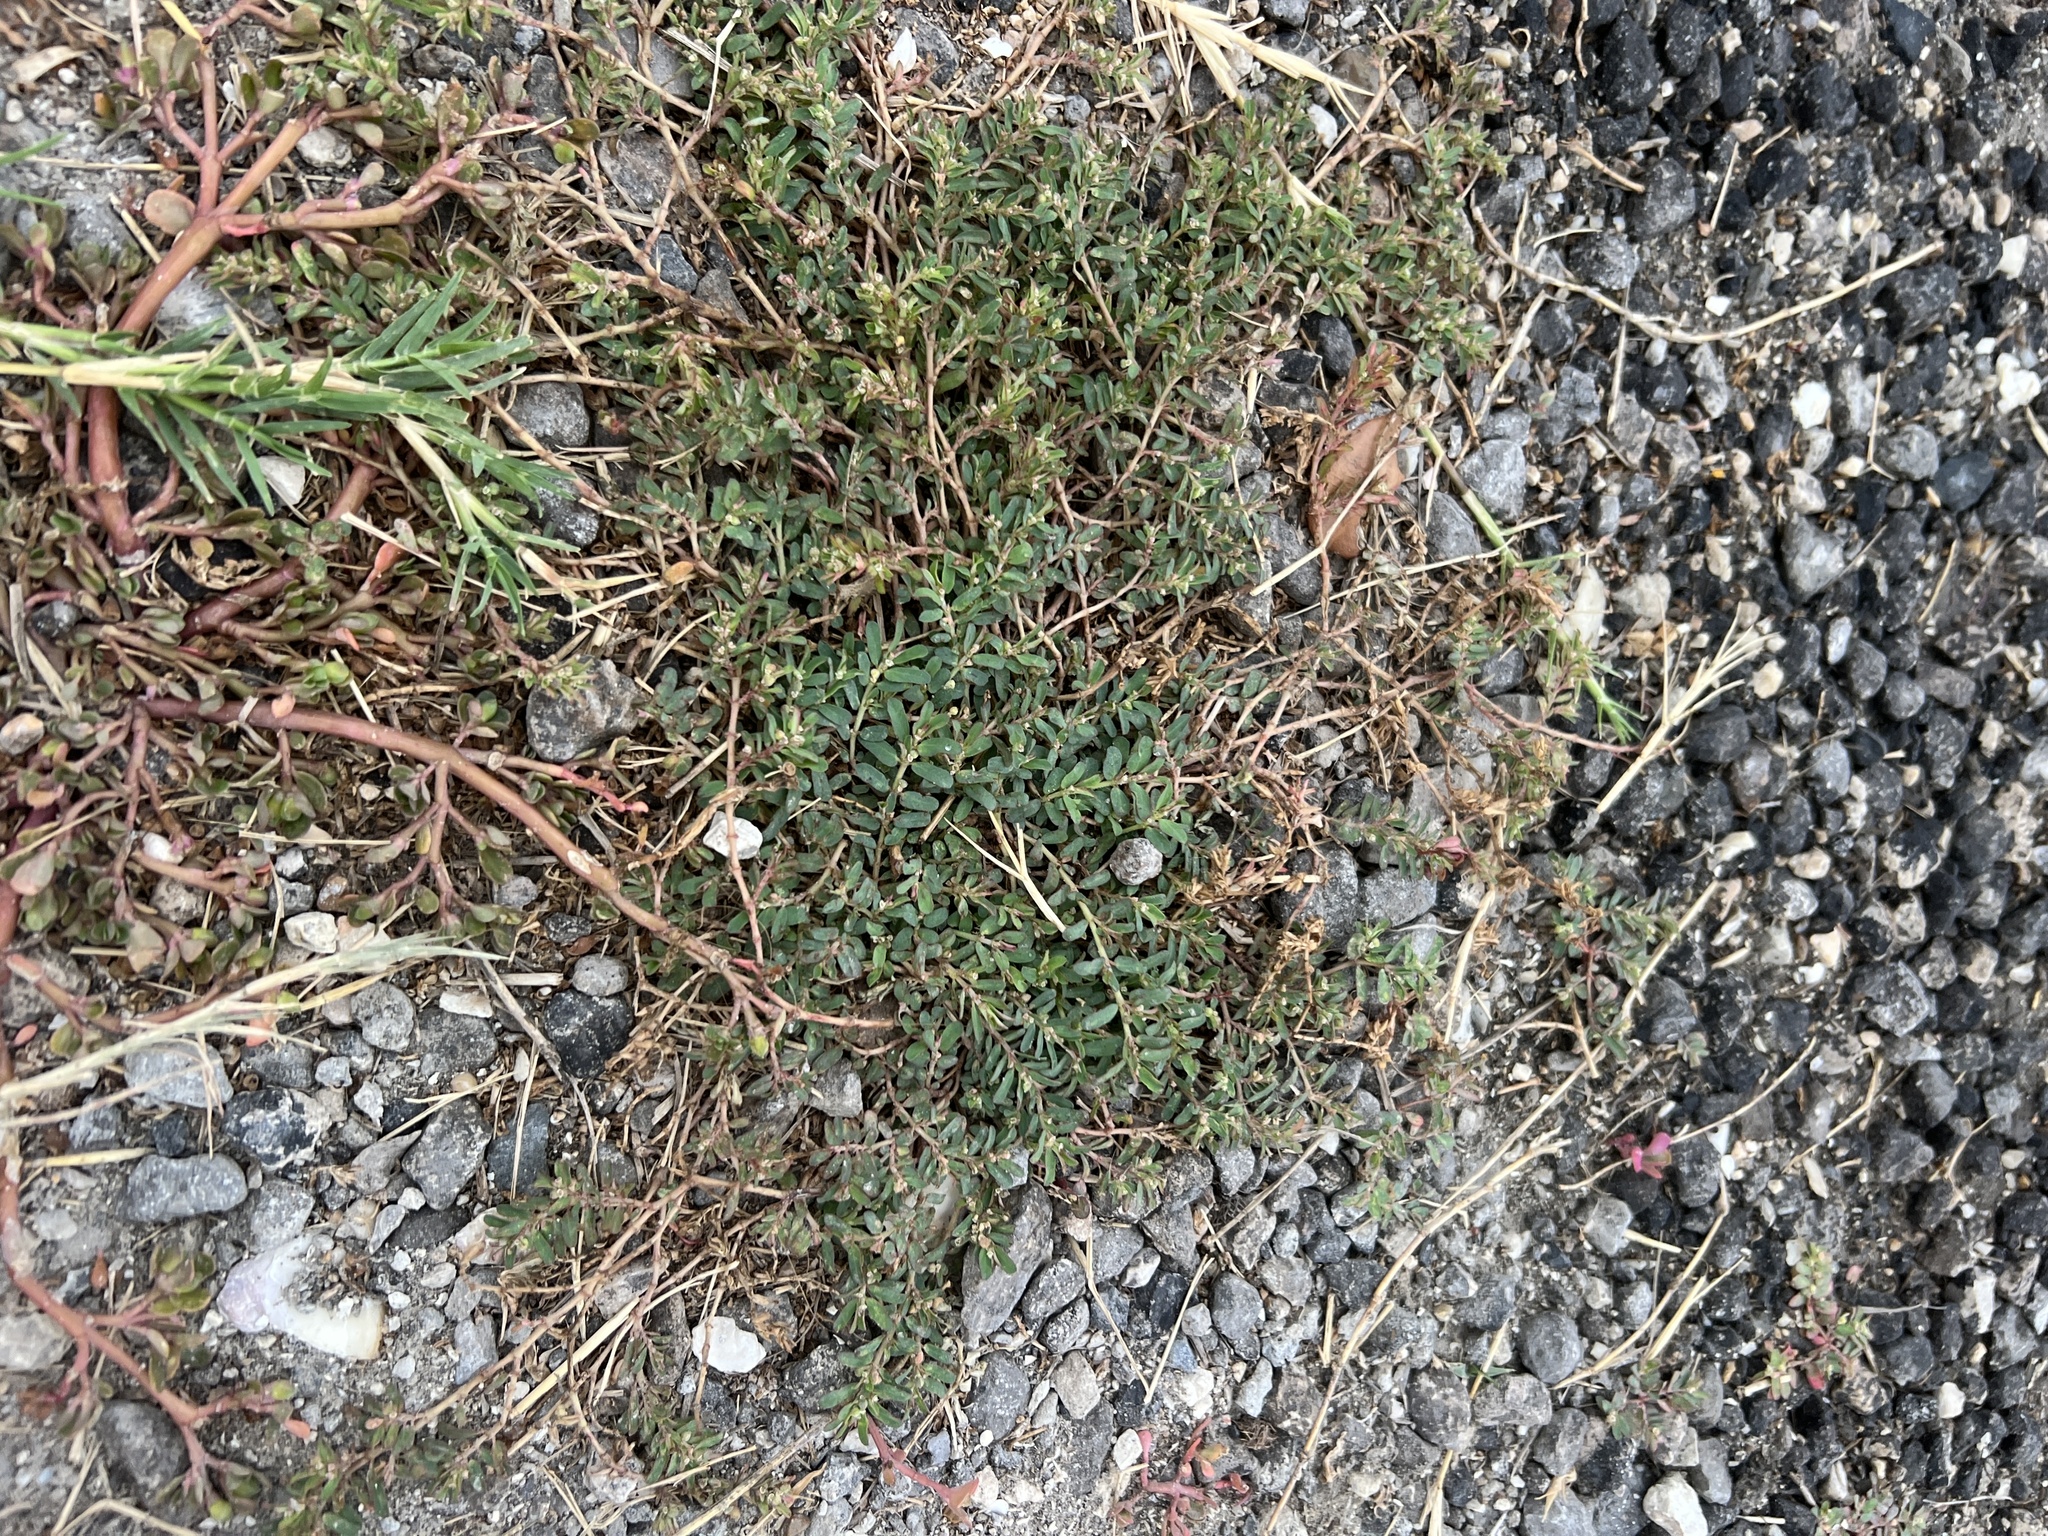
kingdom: Plantae
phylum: Tracheophyta
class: Magnoliopsida
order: Malpighiales
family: Euphorbiaceae
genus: Euphorbia
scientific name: Euphorbia maculata
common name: Spotted spurge
